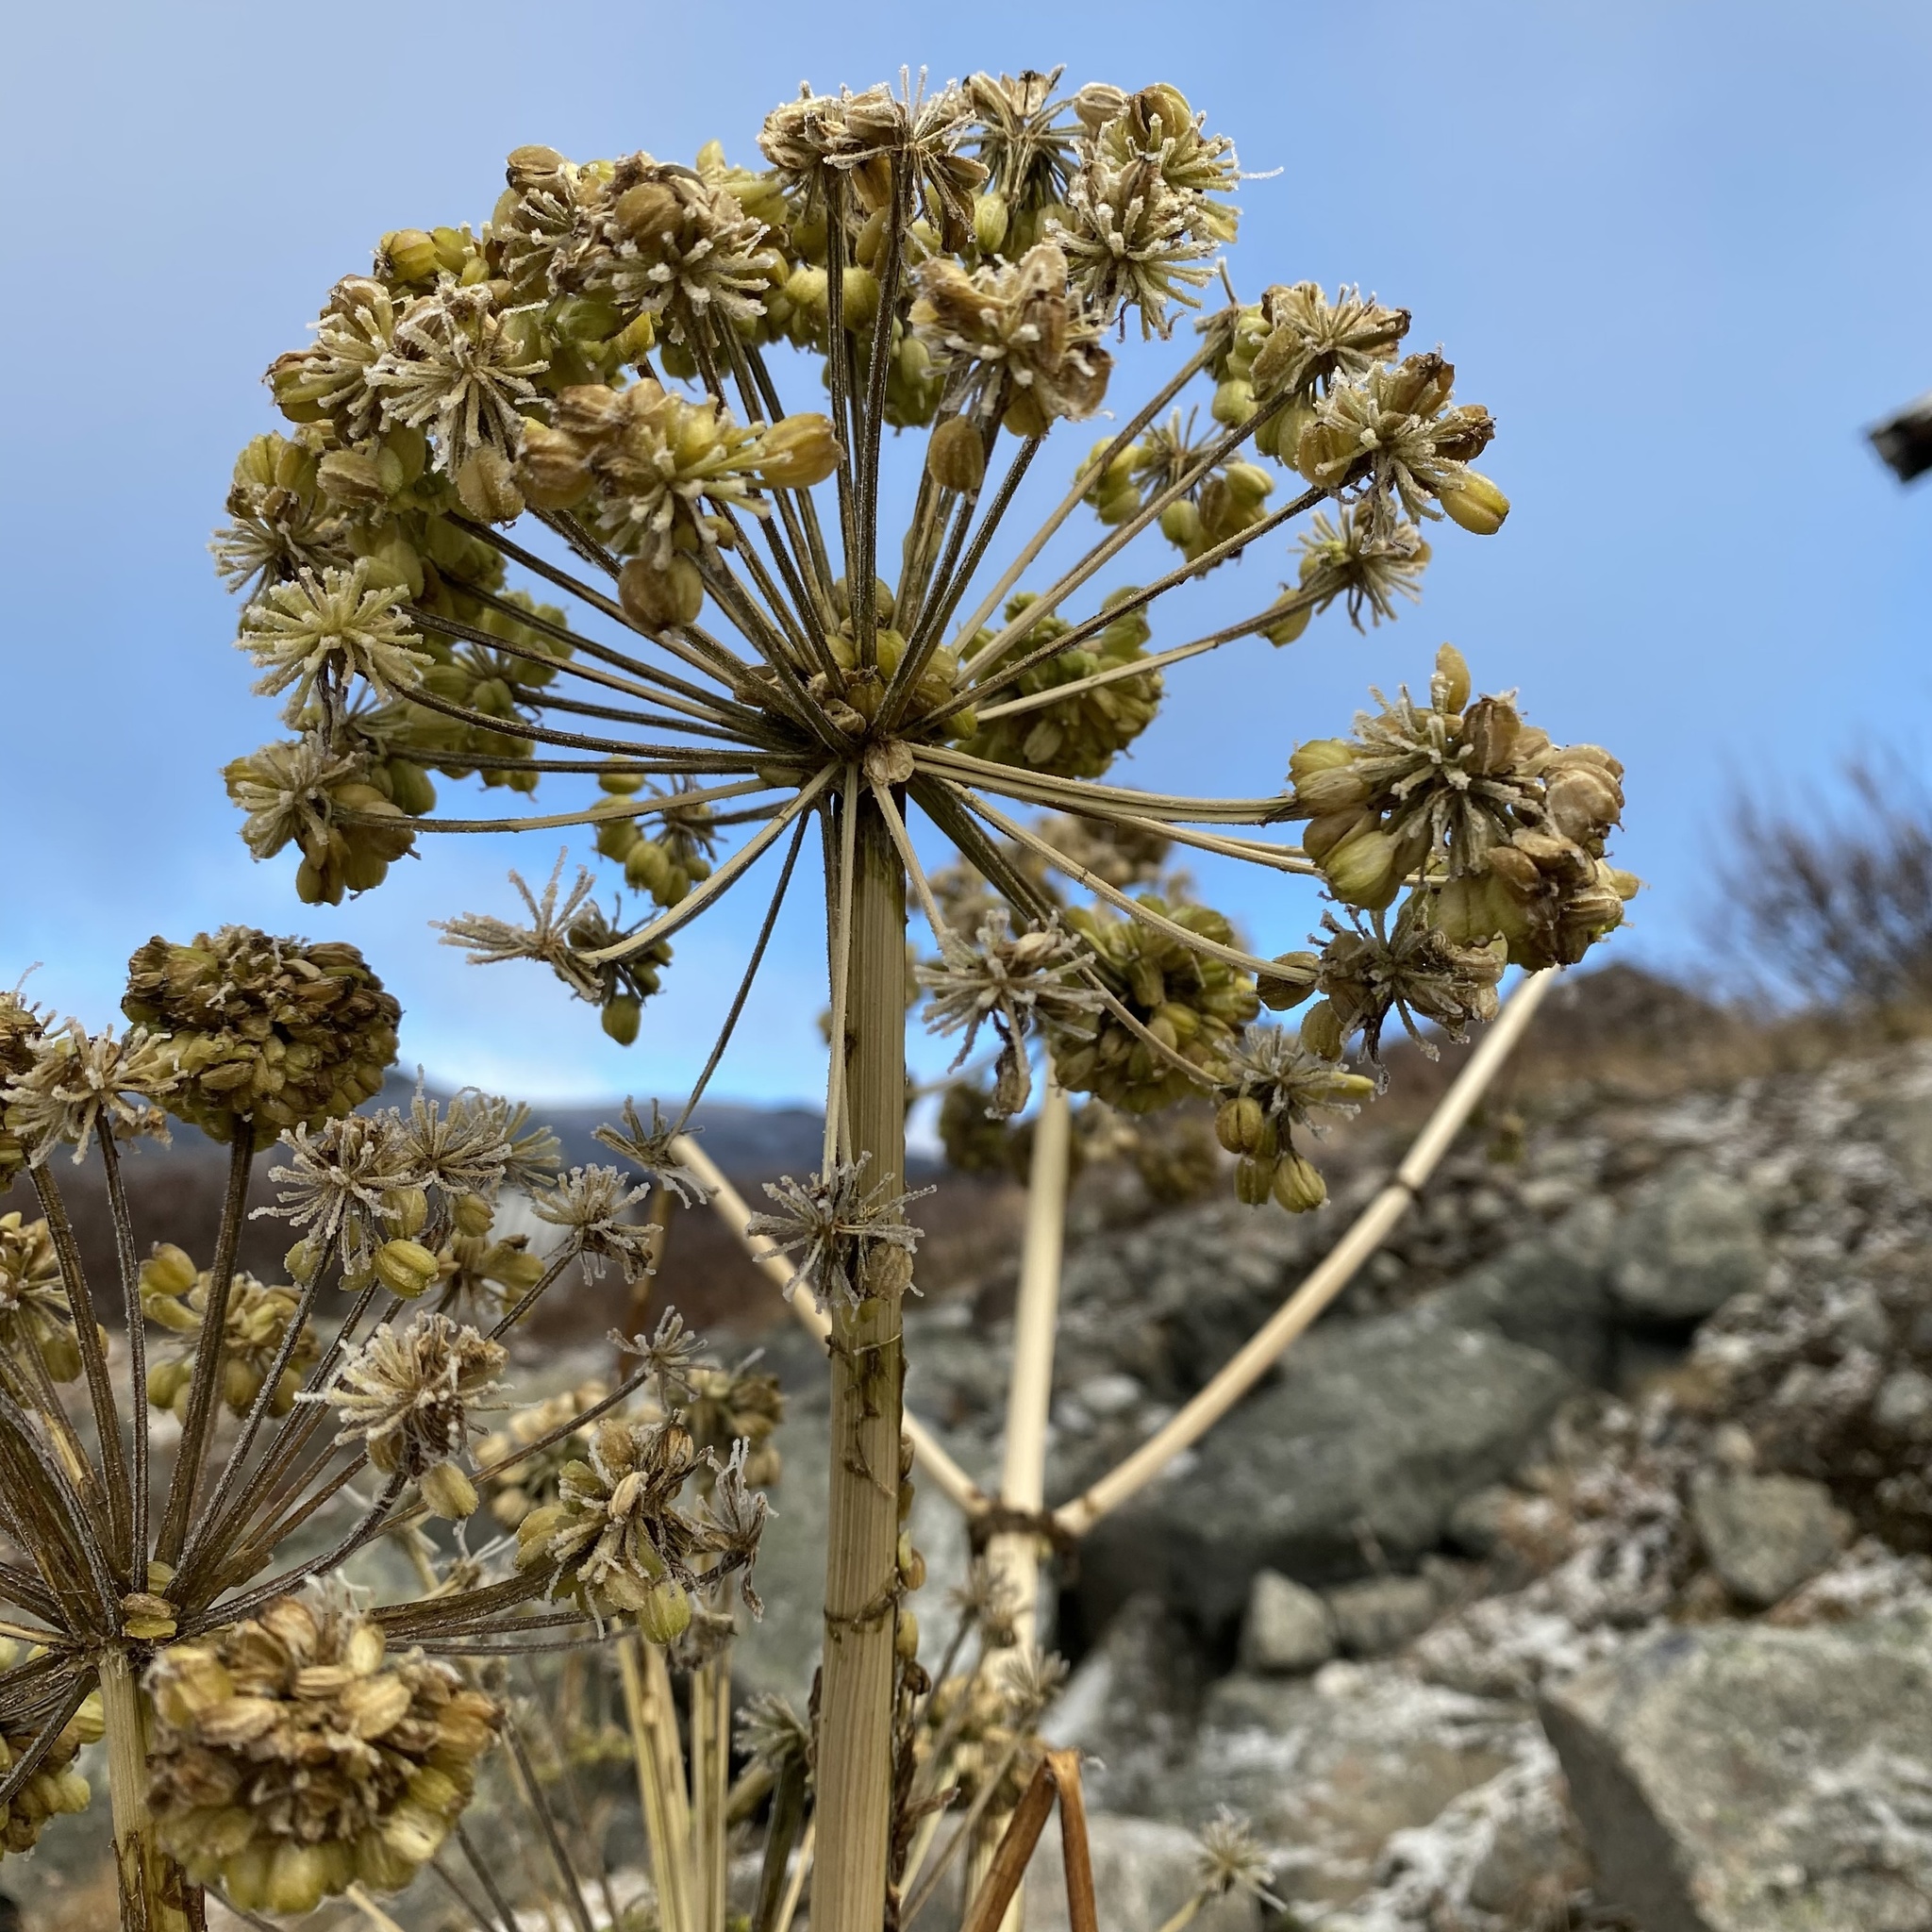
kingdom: Plantae
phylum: Tracheophyta
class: Magnoliopsida
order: Apiales
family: Apiaceae
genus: Angelica
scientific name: Angelica archangelica
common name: Garden angelica
